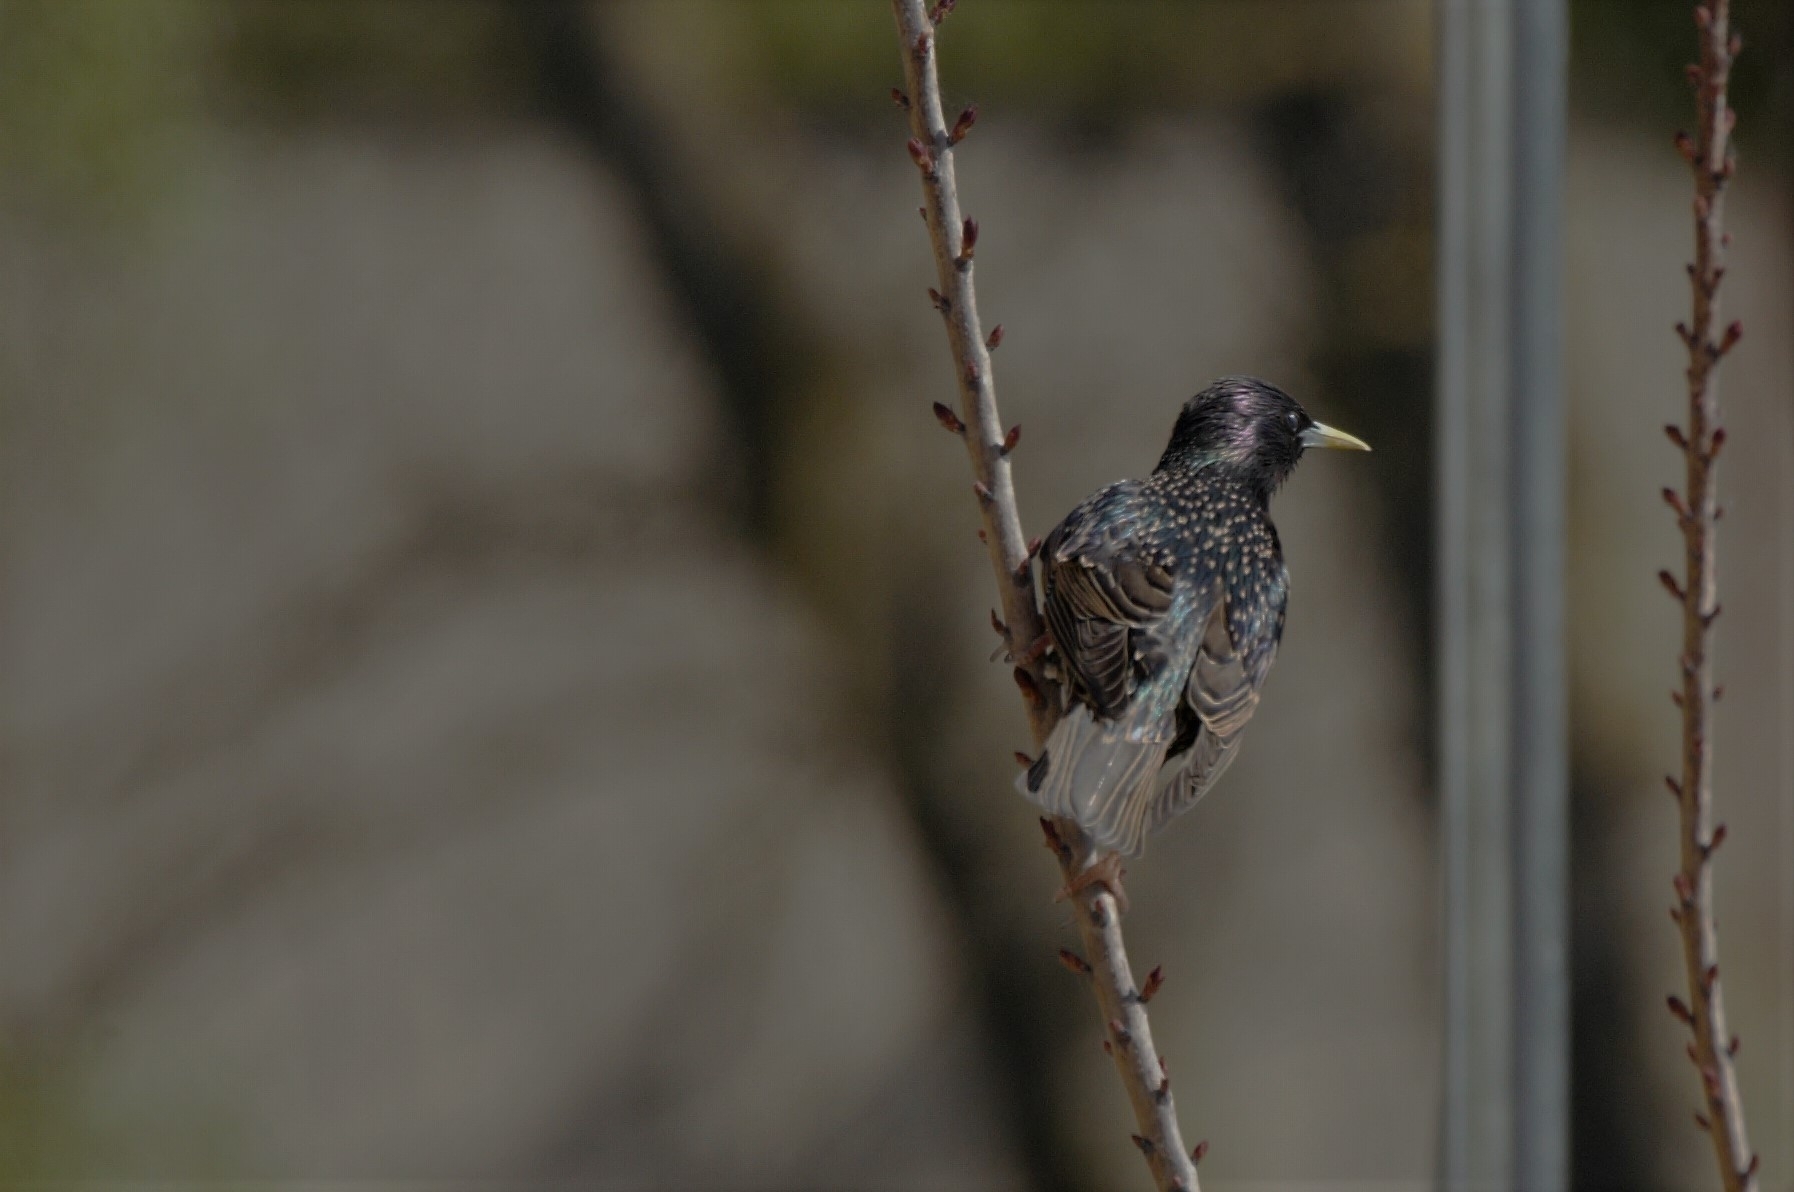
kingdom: Animalia
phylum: Chordata
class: Aves
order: Passeriformes
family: Sturnidae
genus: Sturnus
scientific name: Sturnus vulgaris
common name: Common starling
